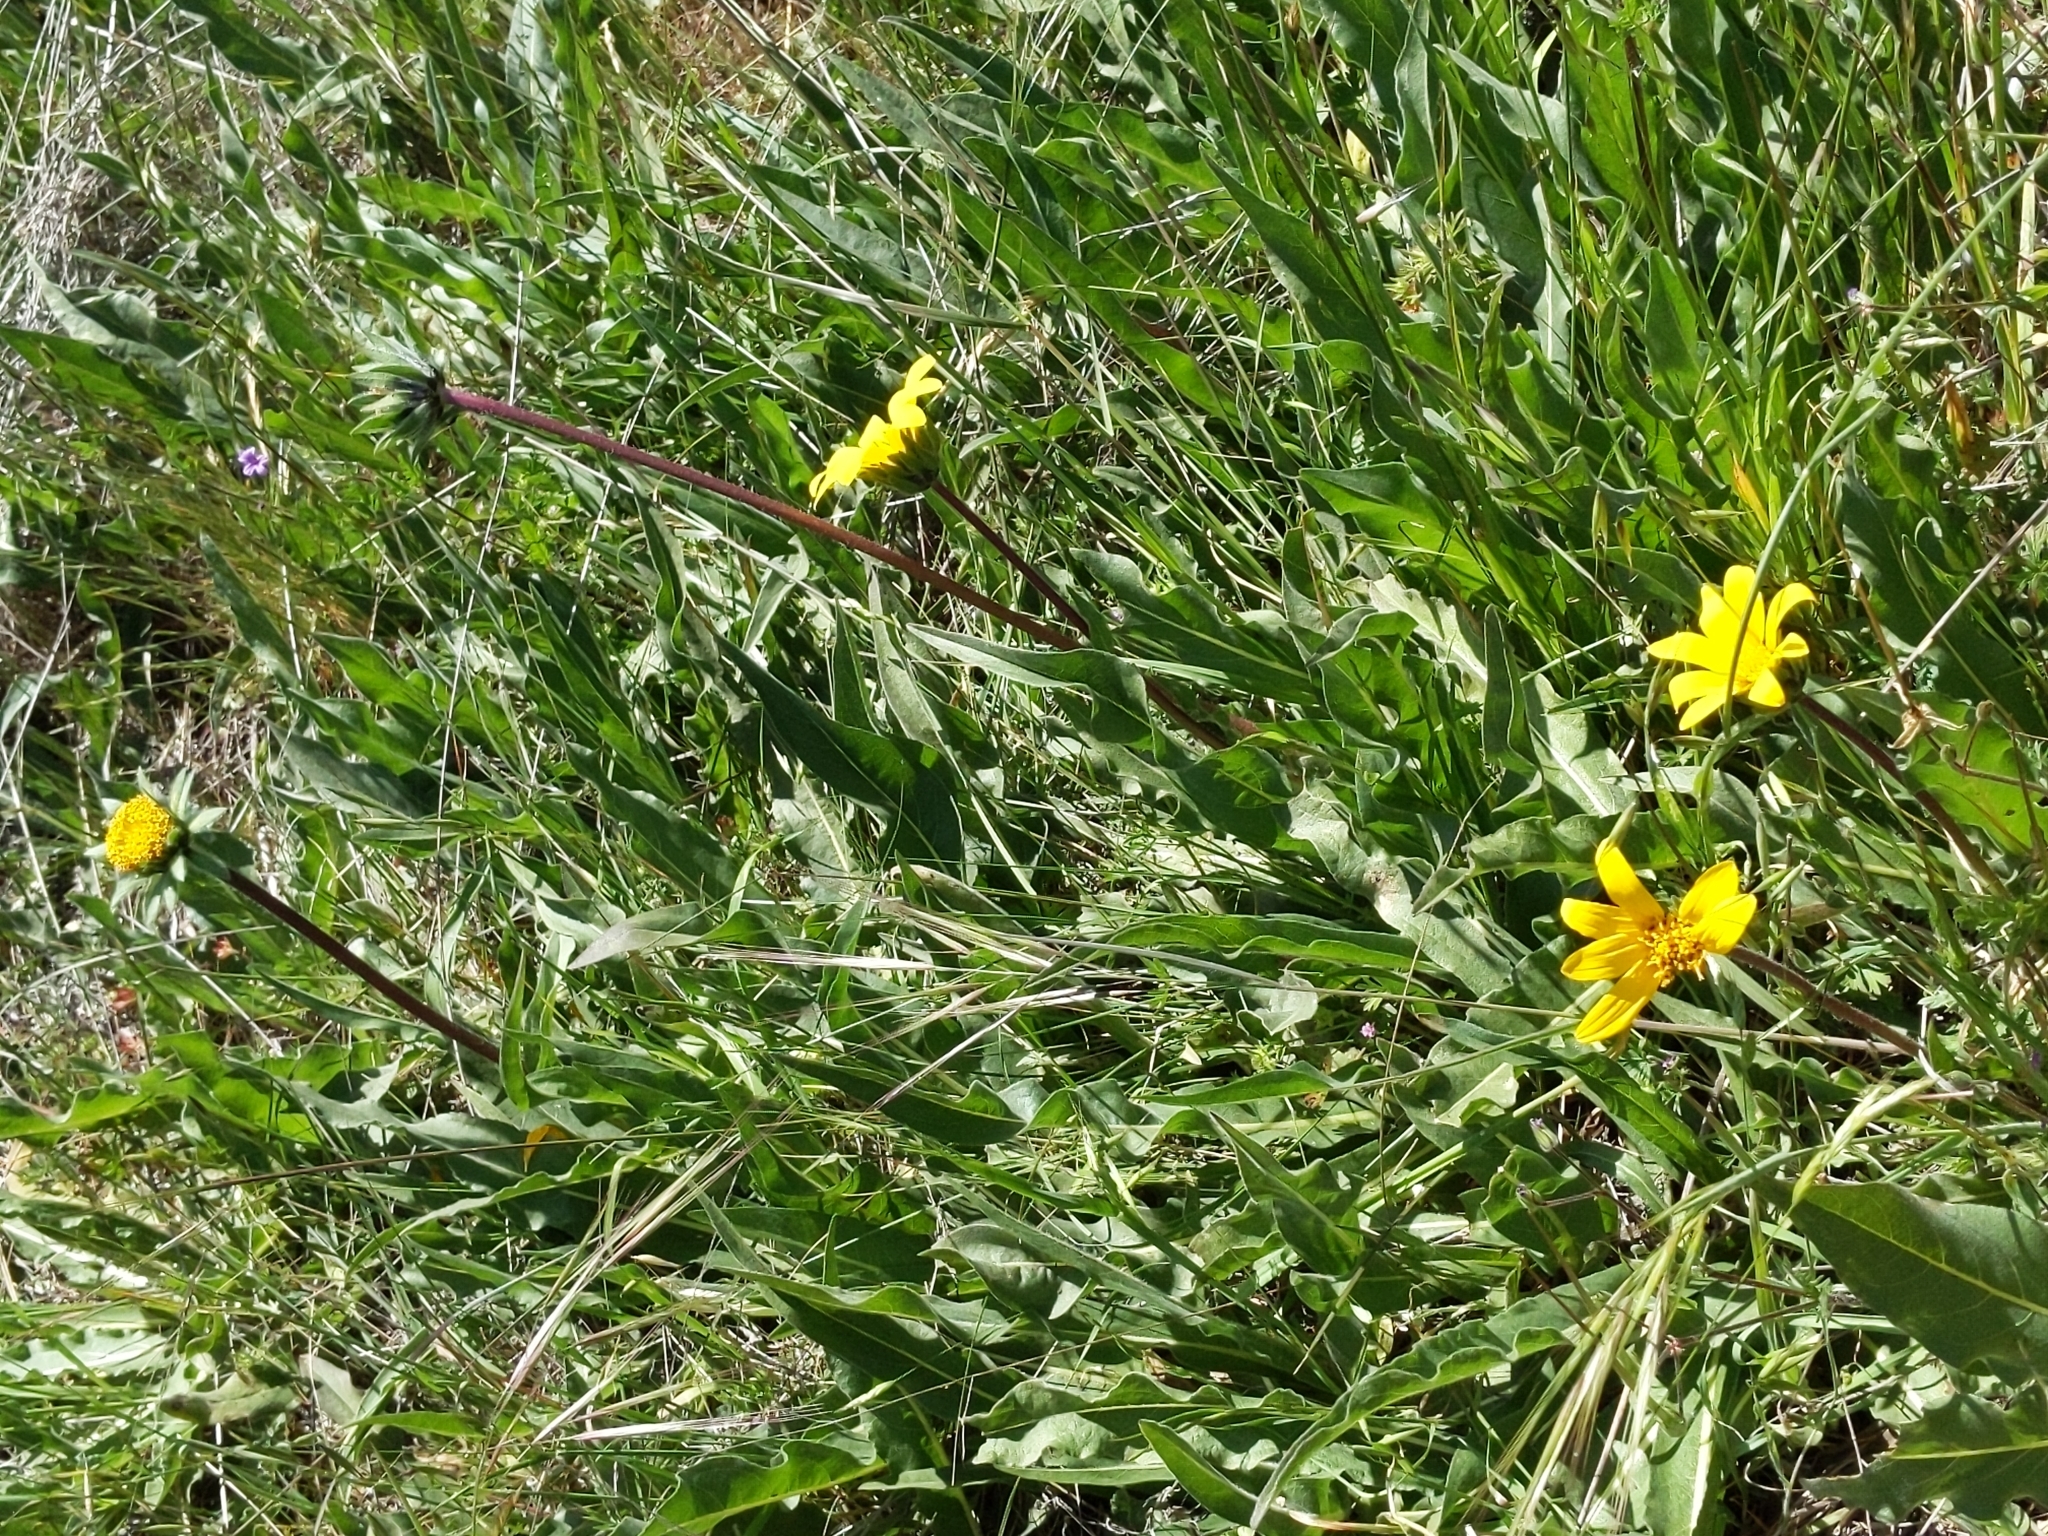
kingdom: Plantae
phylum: Tracheophyta
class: Magnoliopsida
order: Asterales
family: Asteraceae
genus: Wyethia
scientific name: Wyethia angustifolia
